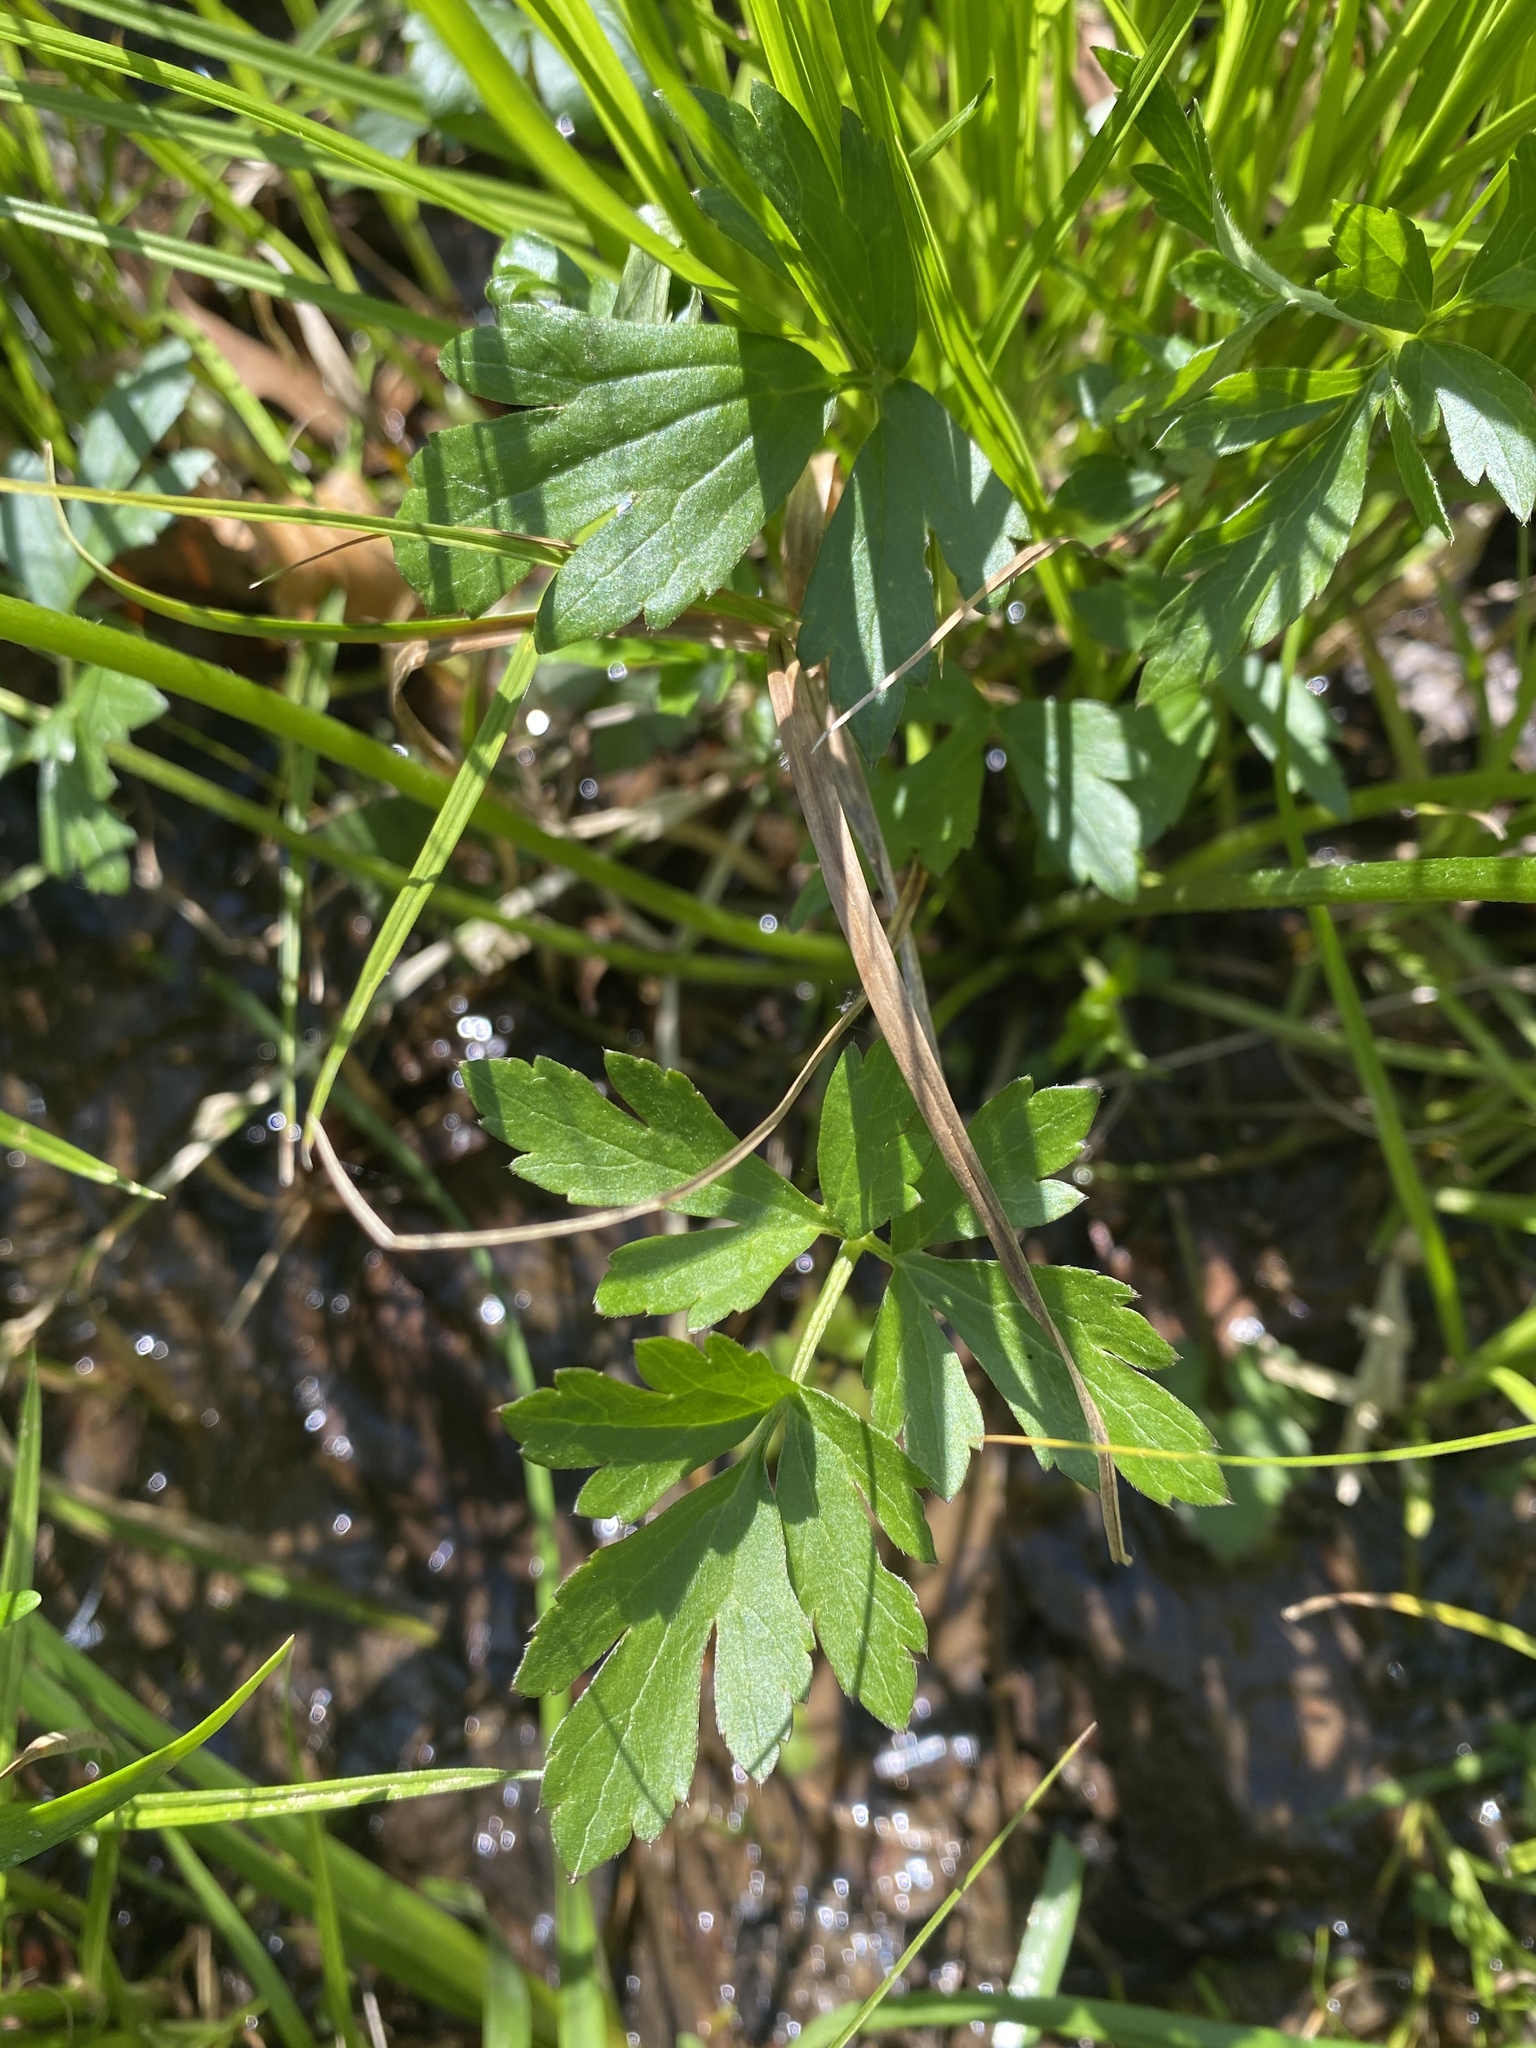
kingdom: Plantae
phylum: Tracheophyta
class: Magnoliopsida
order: Ranunculales
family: Ranunculaceae
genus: Ranunculus
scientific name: Ranunculus hispidus
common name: Bristly buttercup
